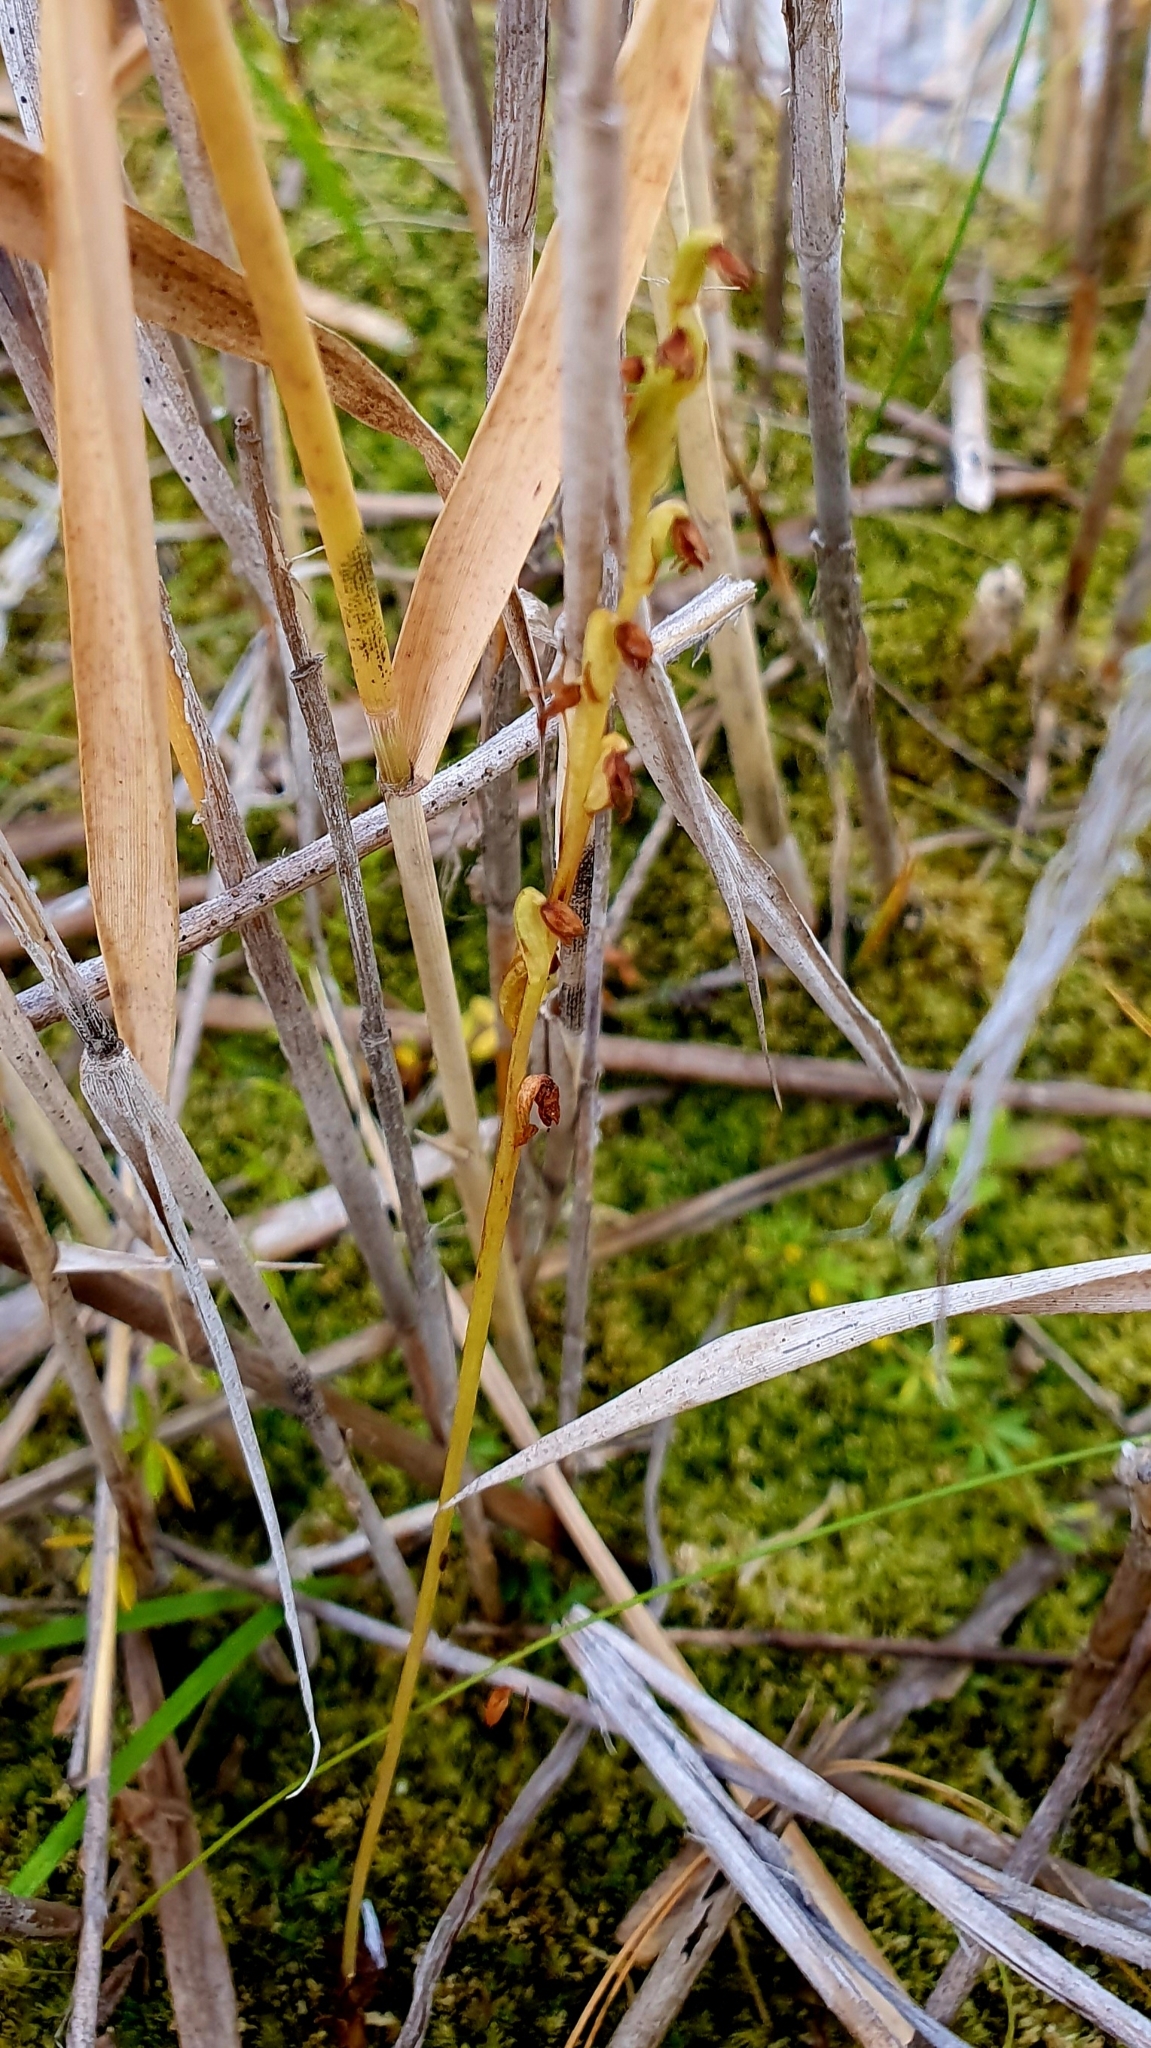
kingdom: Plantae
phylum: Tracheophyta
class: Liliopsida
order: Asparagales
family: Orchidaceae
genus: Herminium
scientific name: Herminium monorchis
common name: Musk orchid
